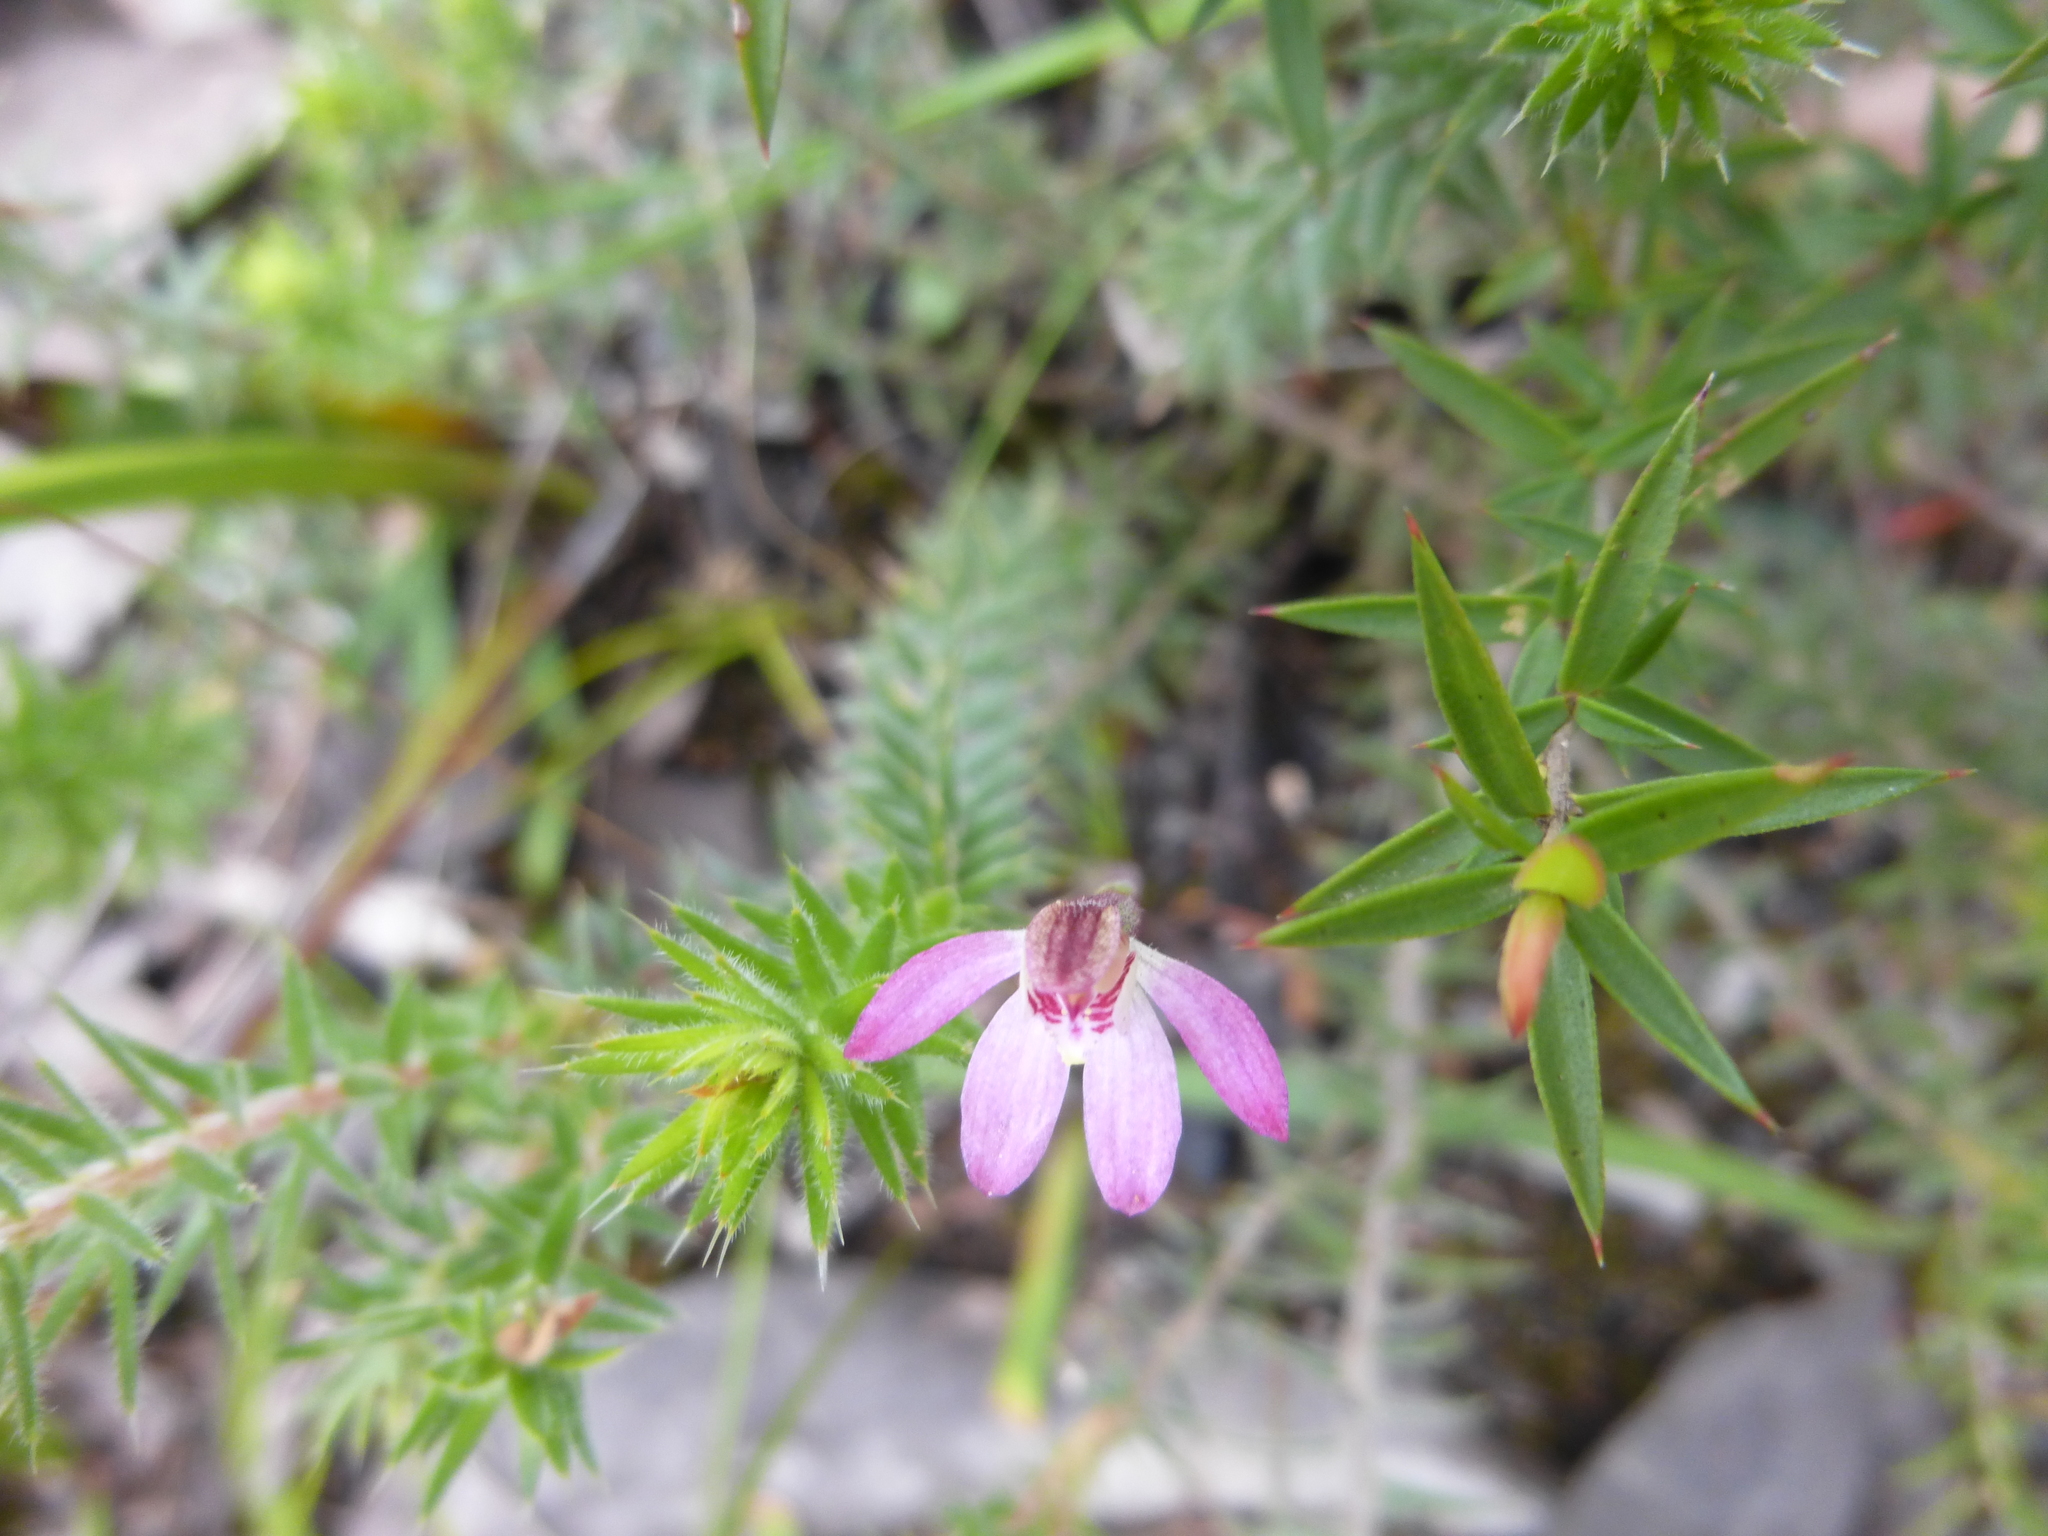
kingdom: Plantae
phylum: Tracheophyta
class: Liliopsida
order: Asparagales
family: Orchidaceae
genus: Caladenia
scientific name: Caladenia pusilla
